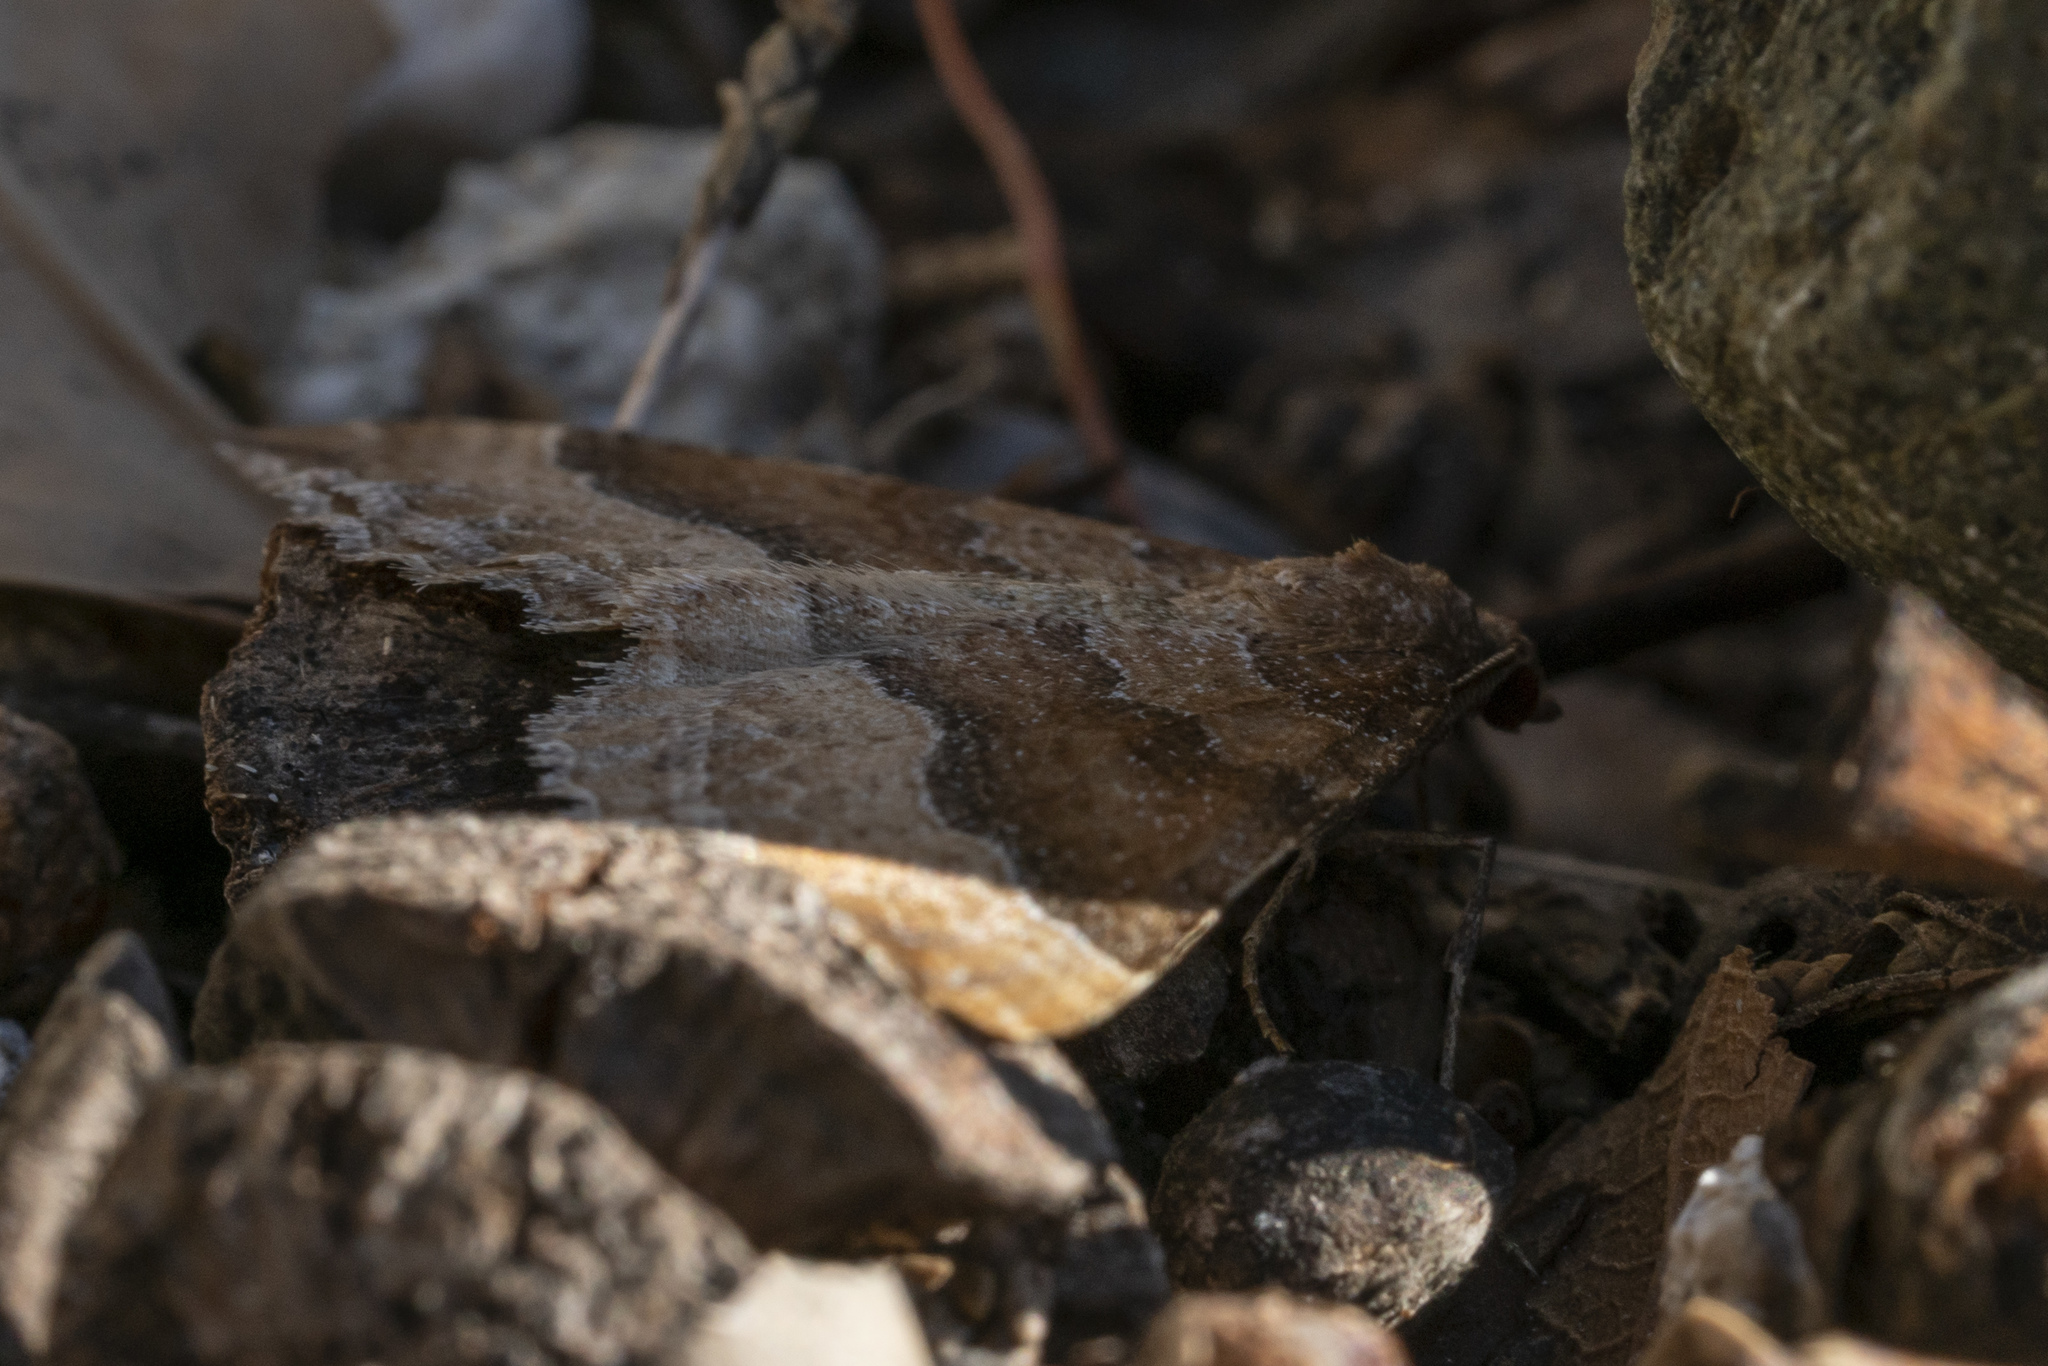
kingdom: Animalia
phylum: Arthropoda
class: Insecta
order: Lepidoptera
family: Geometridae
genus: Larentia
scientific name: Larentia clavaria
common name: Mallow
